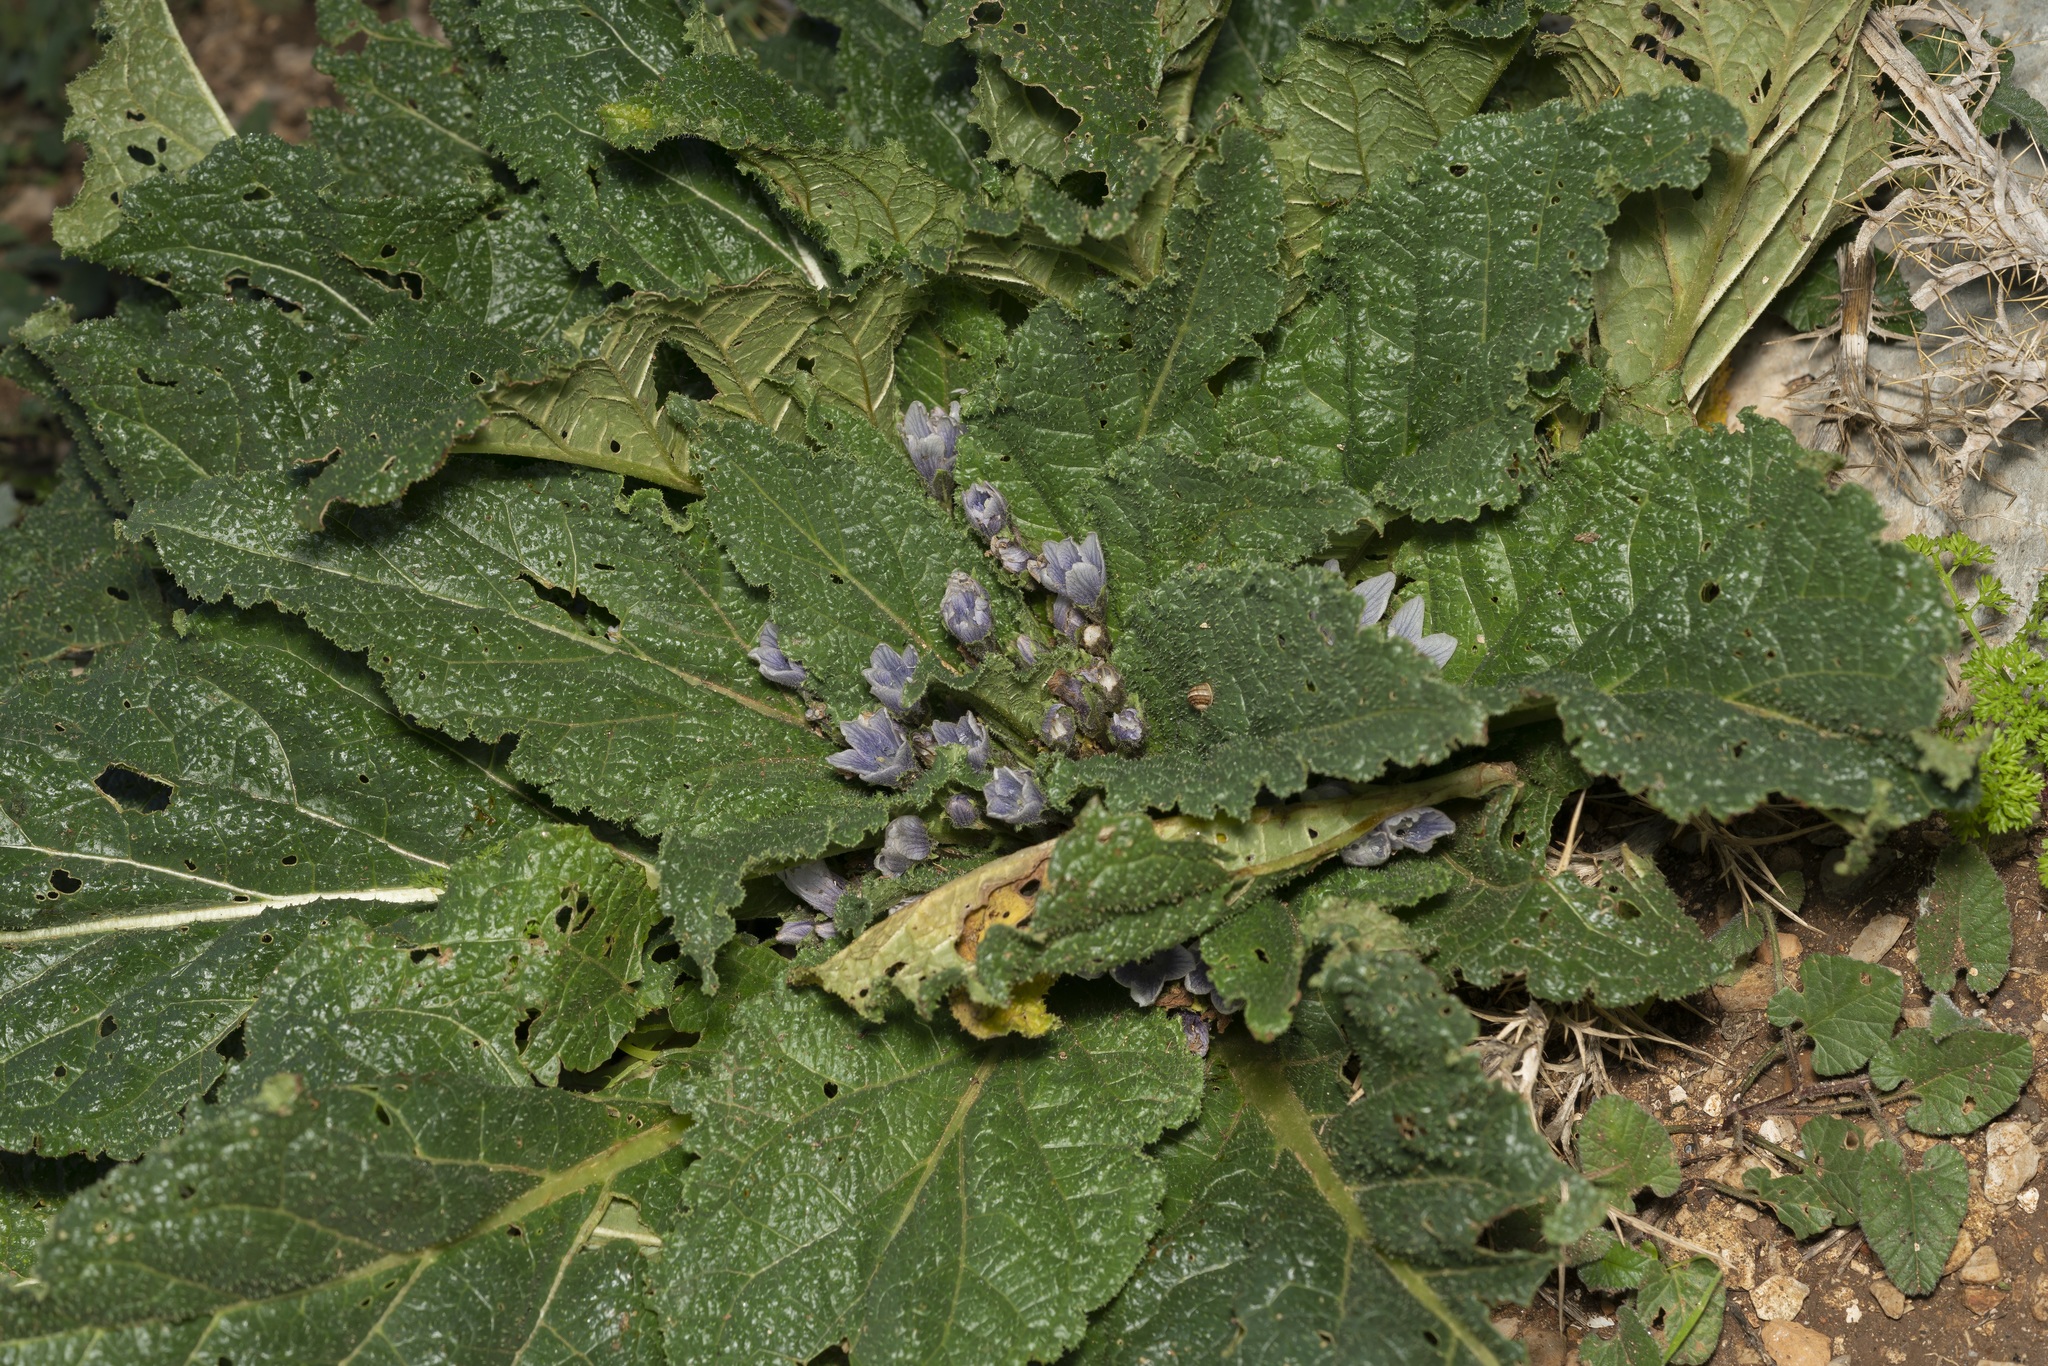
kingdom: Plantae
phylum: Tracheophyta
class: Magnoliopsida
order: Solanales
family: Solanaceae
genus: Mandragora
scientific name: Mandragora officinarum
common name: Mandrake
